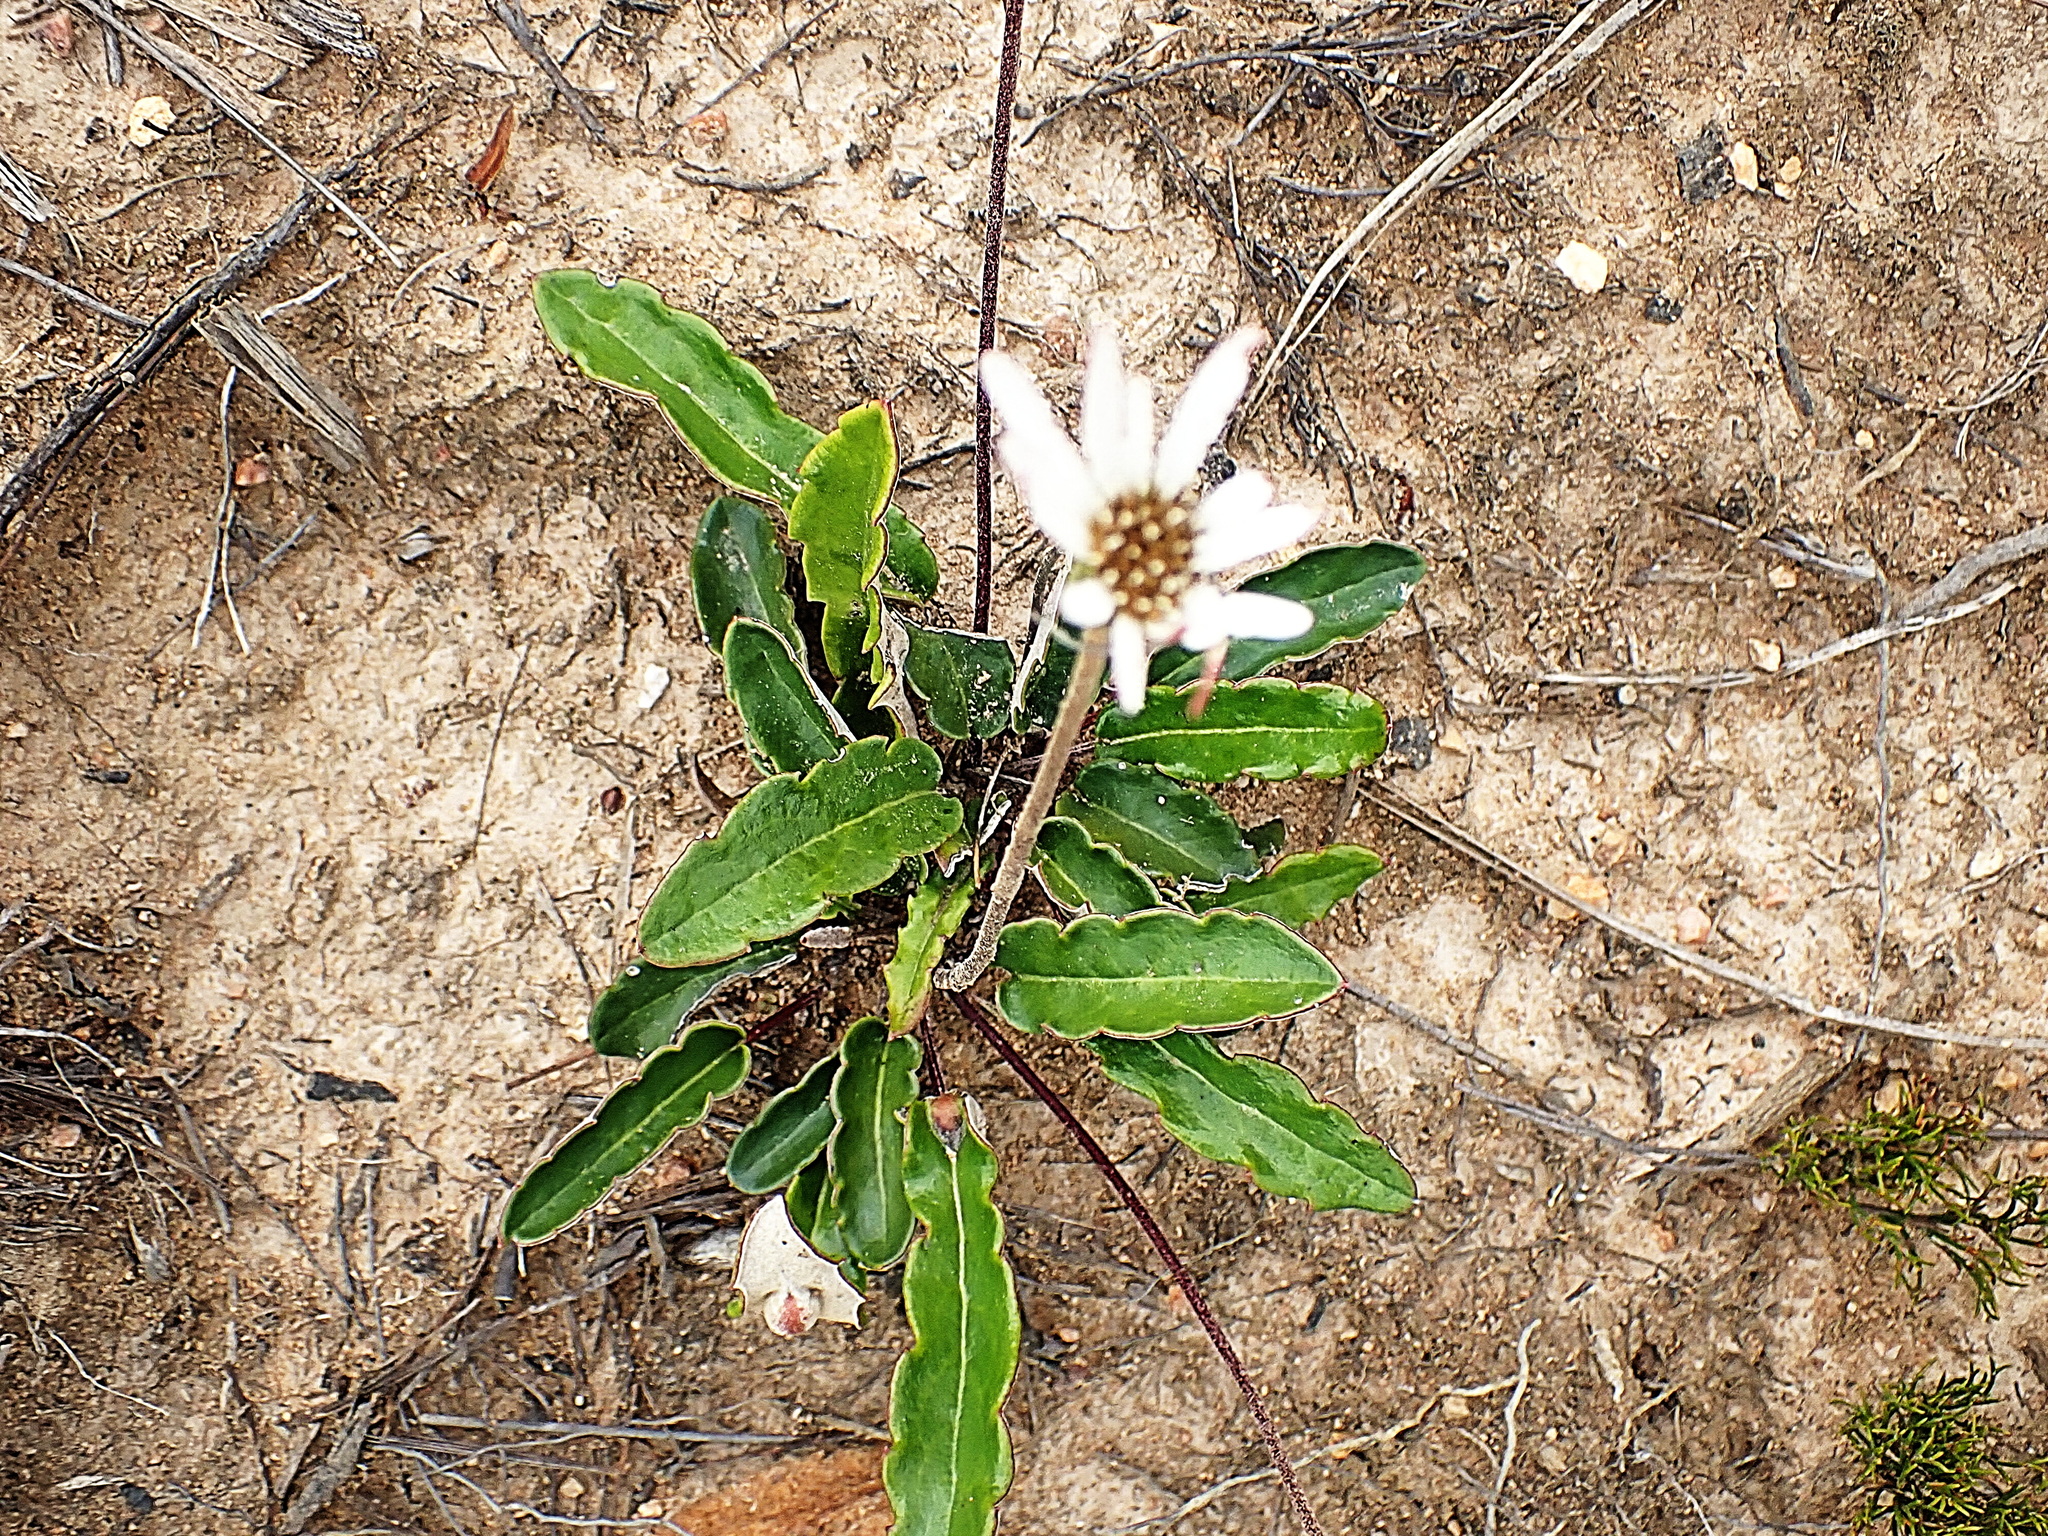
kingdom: Plantae
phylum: Tracheophyta
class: Magnoliopsida
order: Asterales
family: Asteraceae
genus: Gerbera
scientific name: Gerbera serrata
